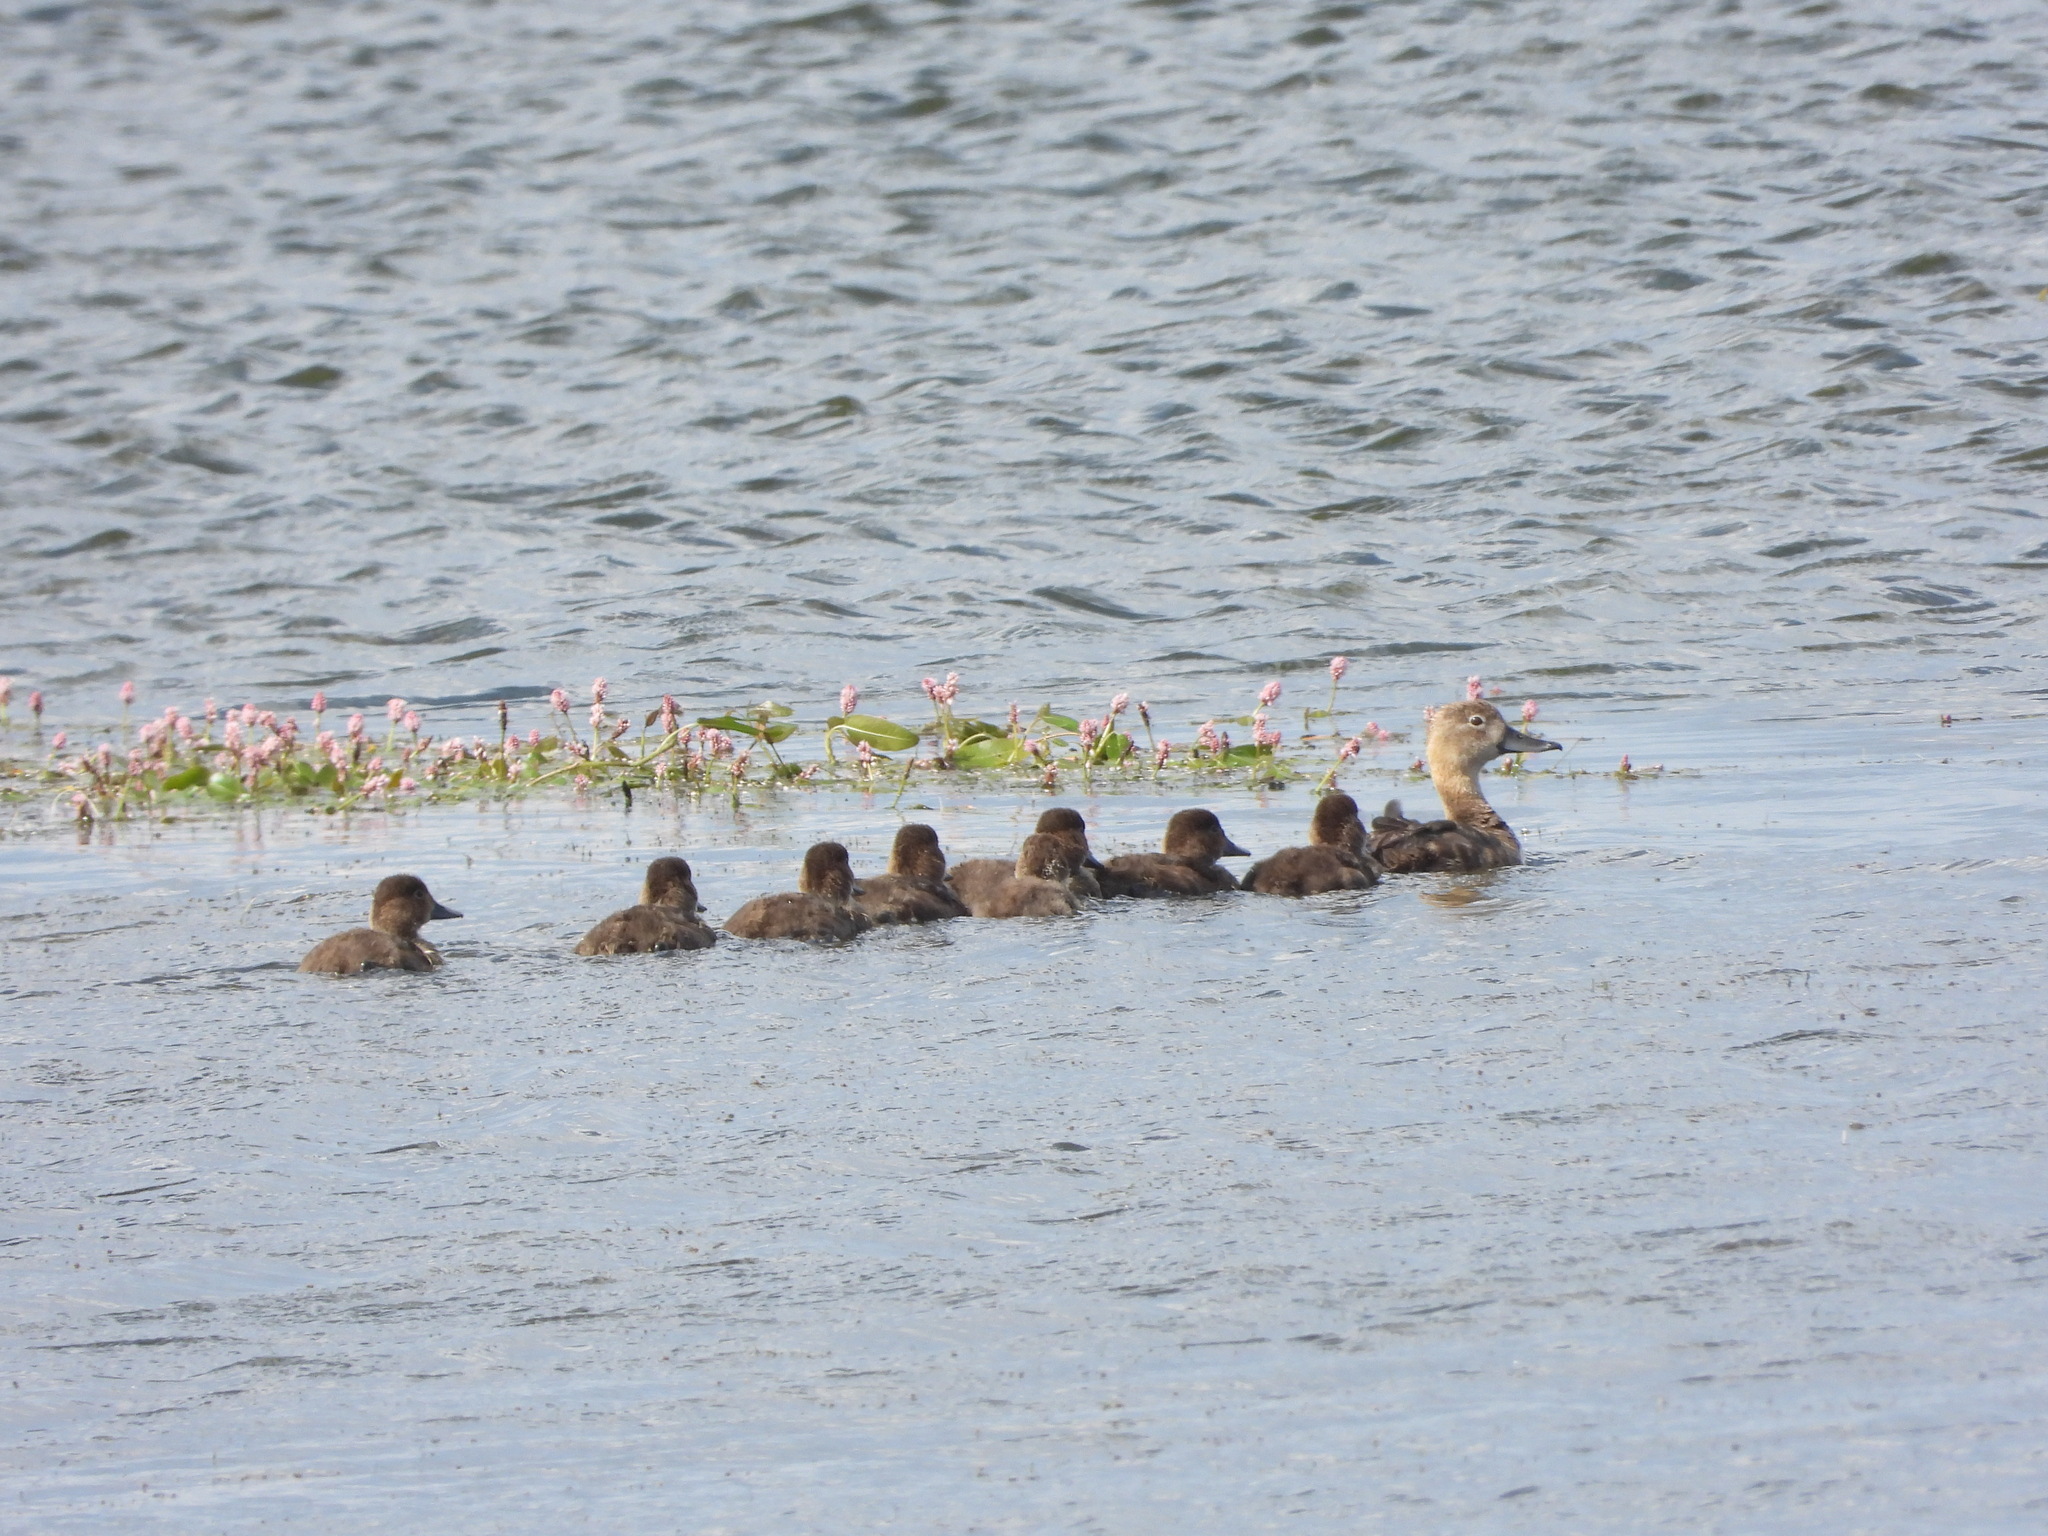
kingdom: Animalia
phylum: Chordata
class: Aves
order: Anseriformes
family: Anatidae
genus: Aythya
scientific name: Aythya americana
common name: Redhead
